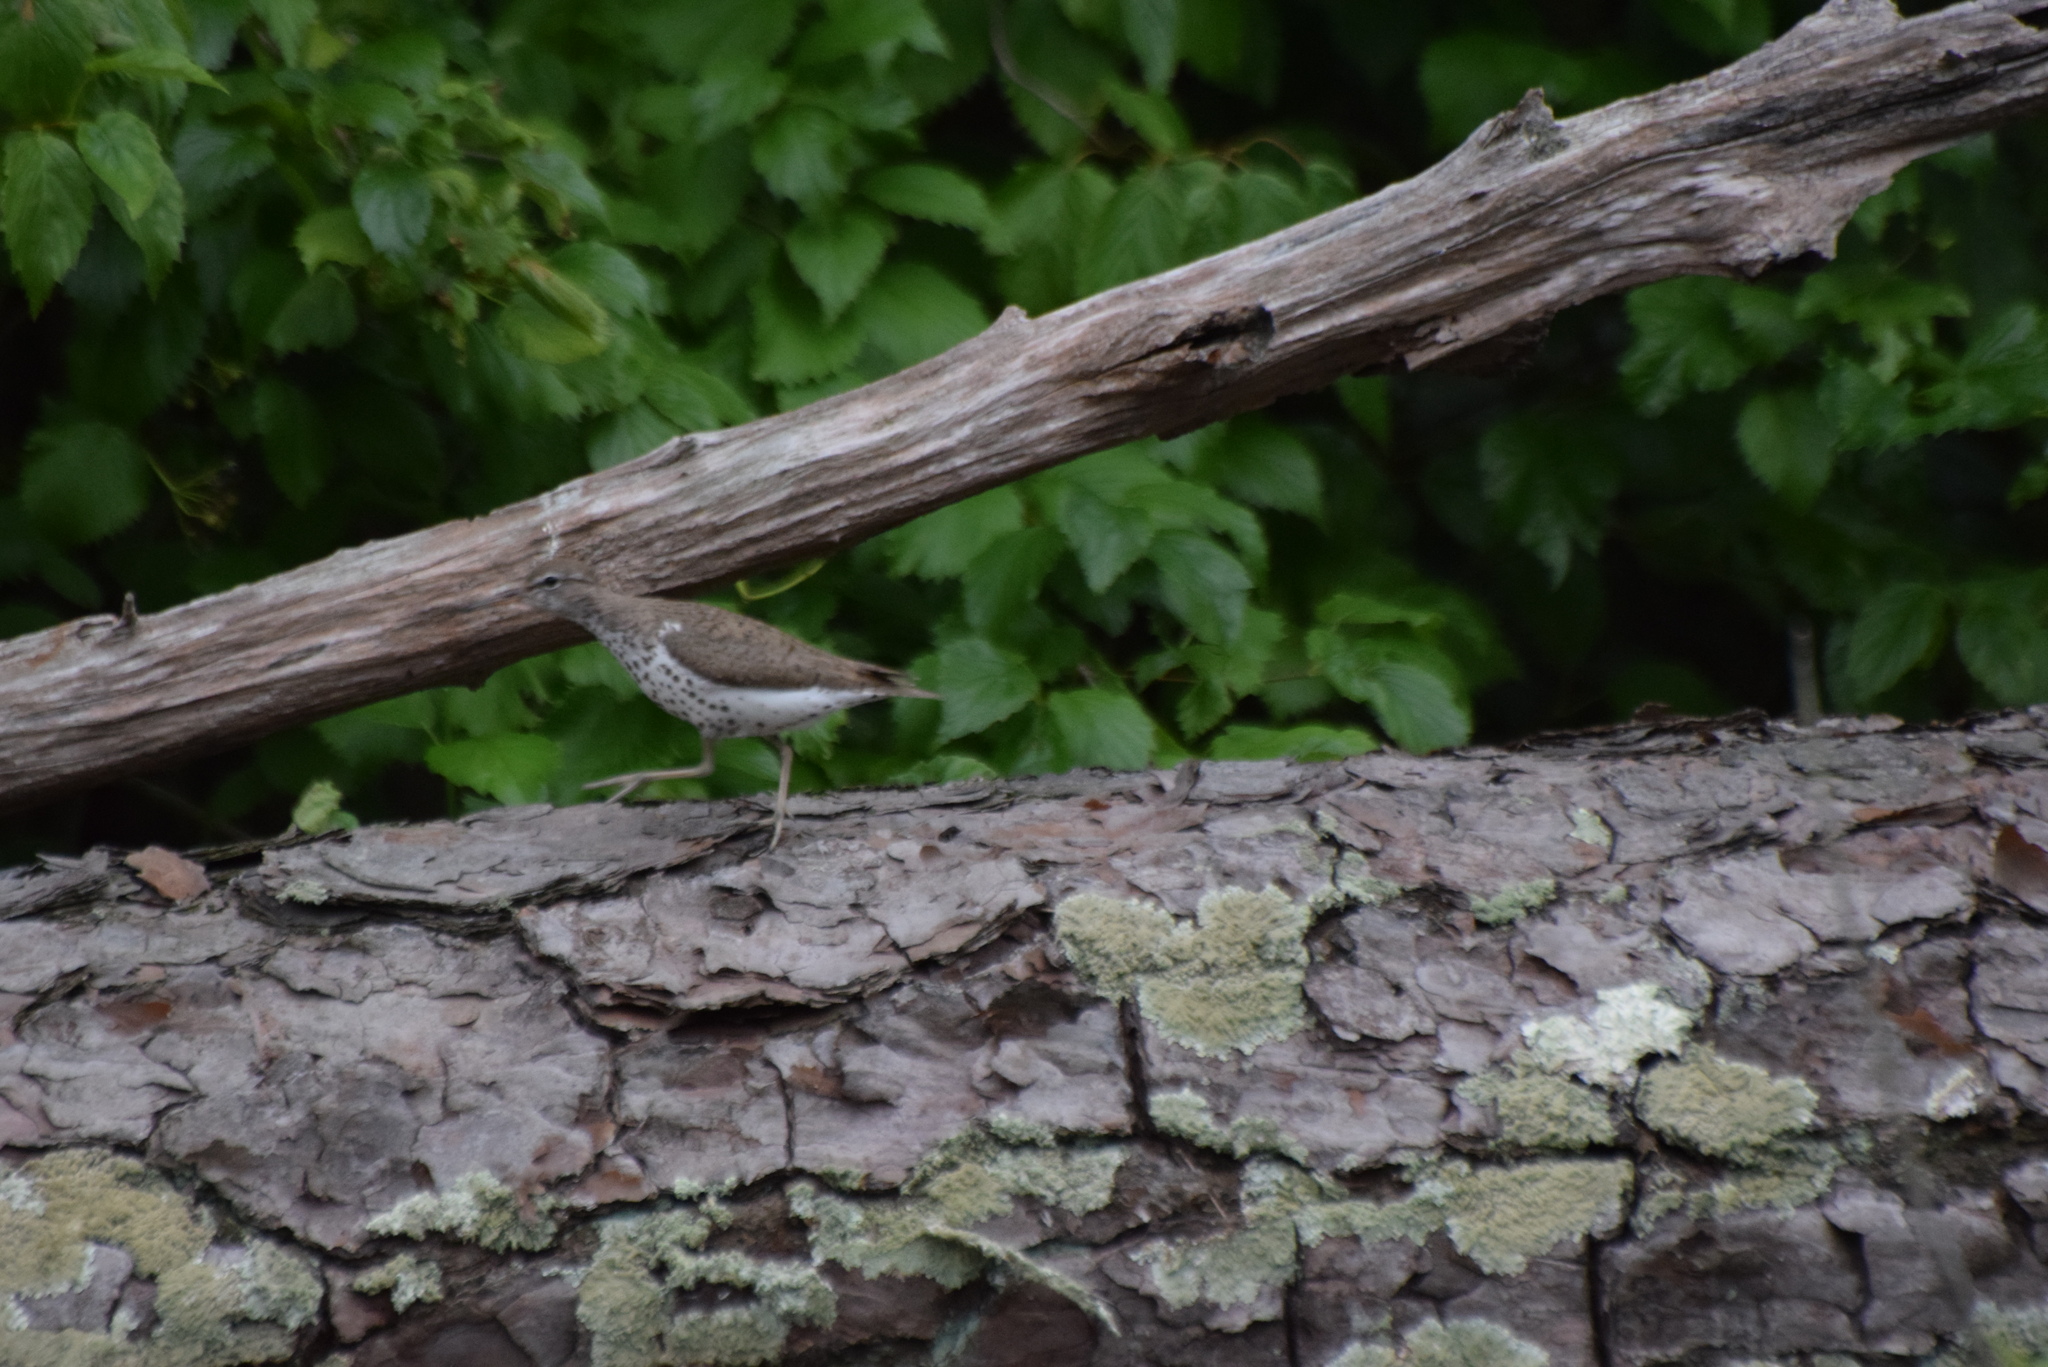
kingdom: Animalia
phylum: Chordata
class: Aves
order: Charadriiformes
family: Scolopacidae
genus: Actitis
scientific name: Actitis macularius
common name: Spotted sandpiper
